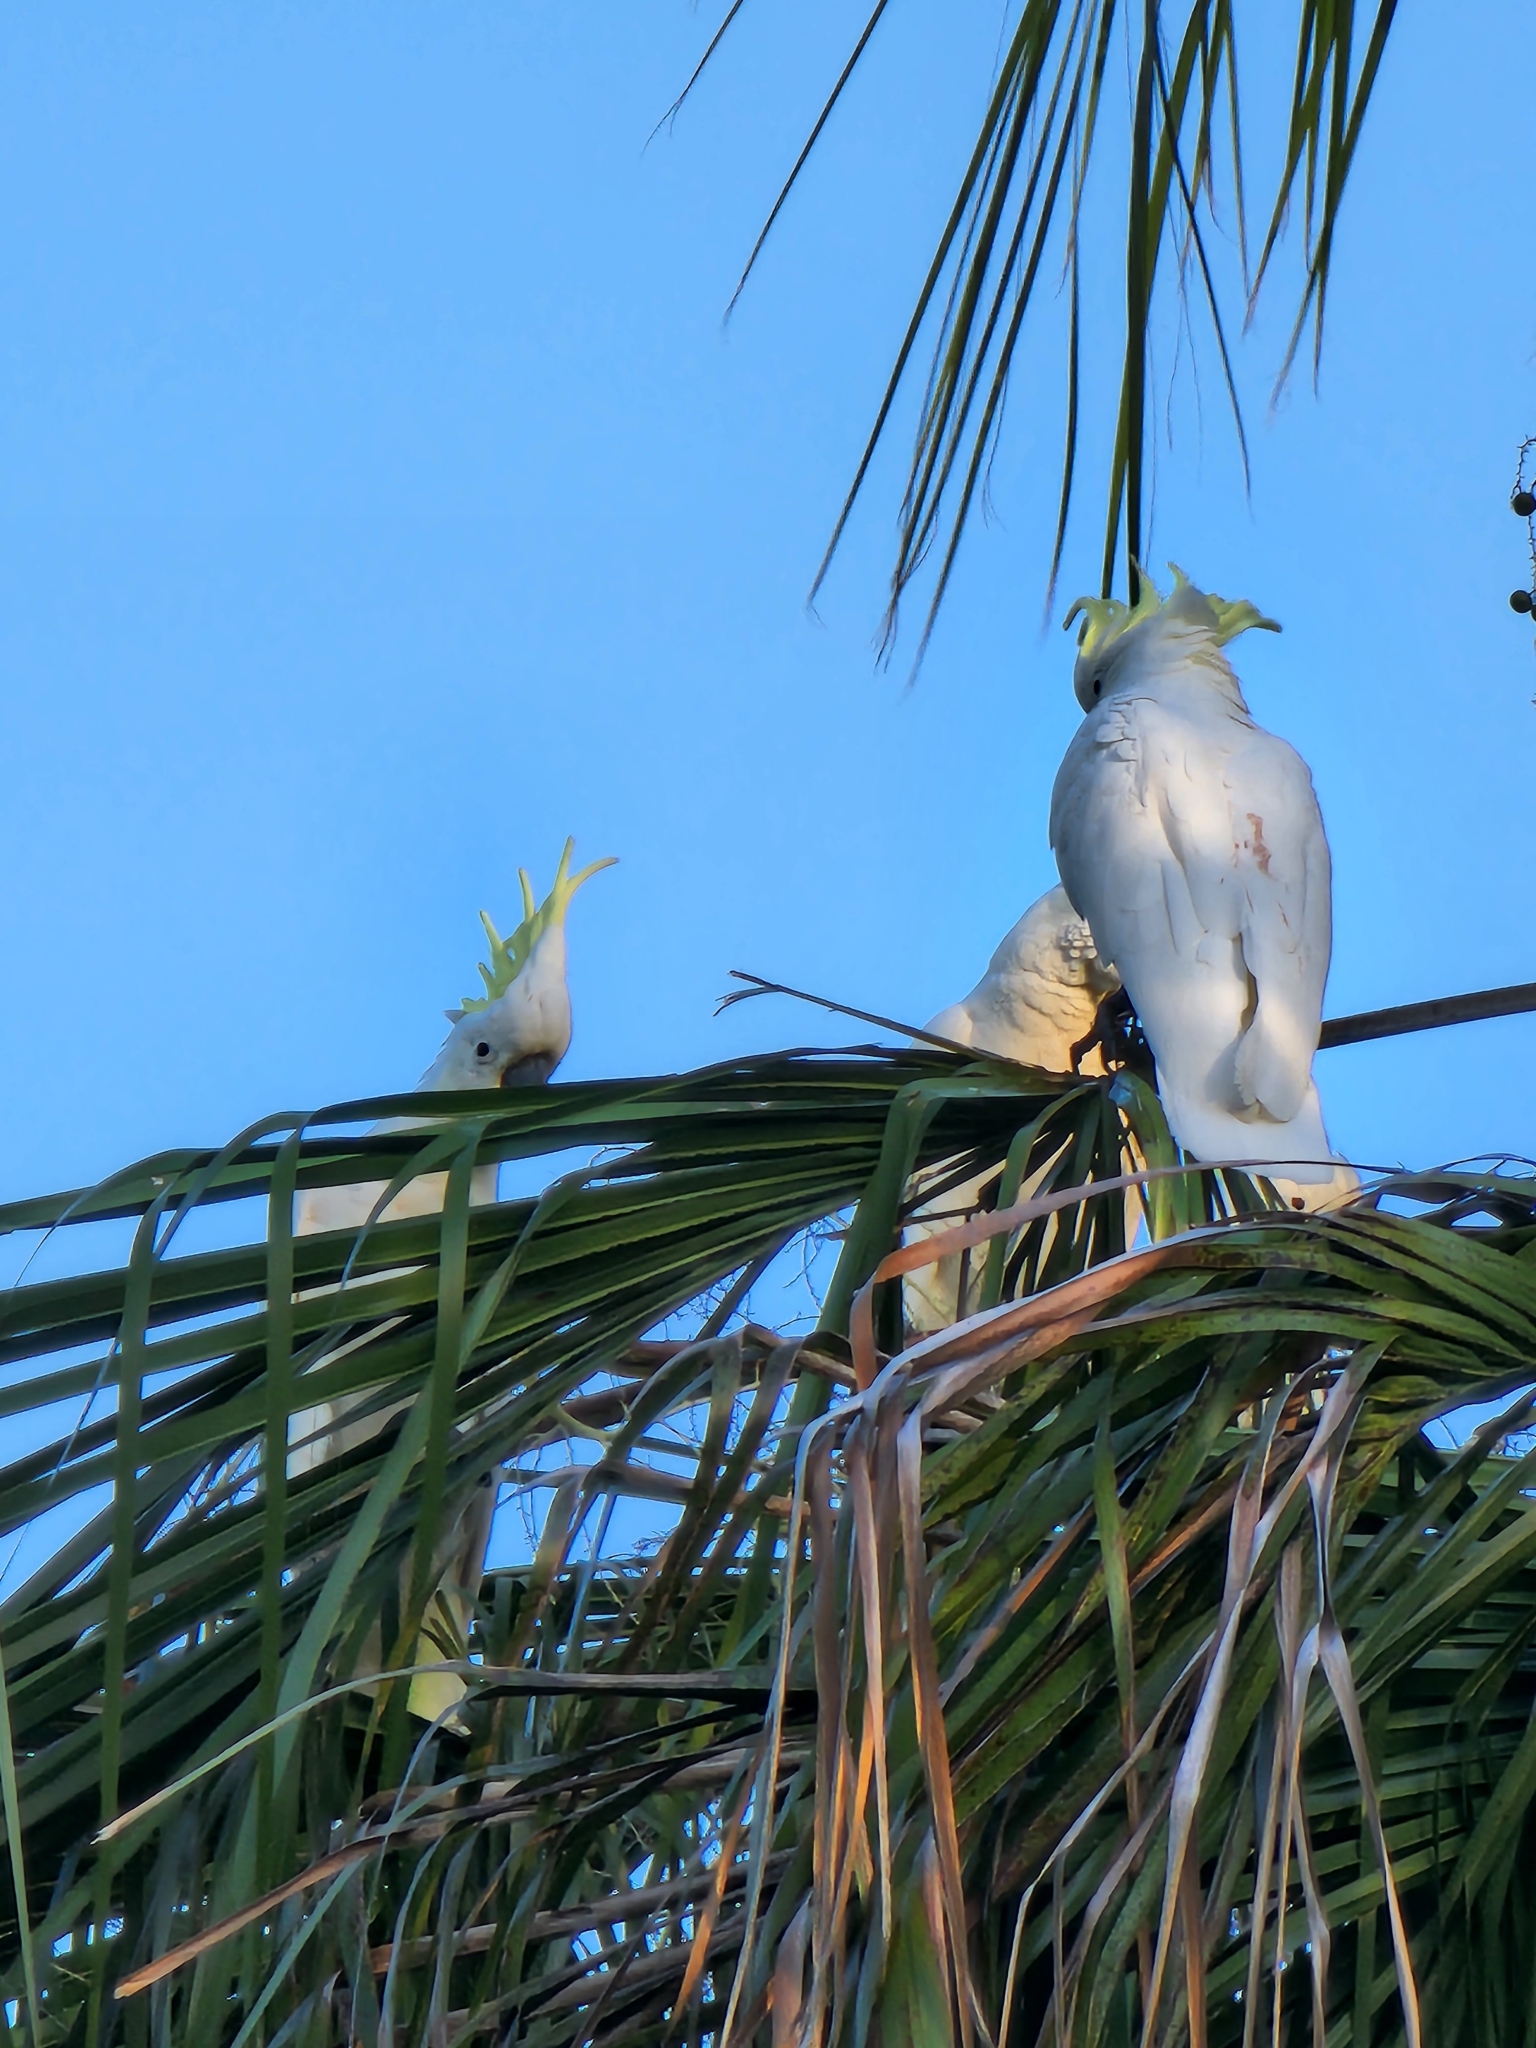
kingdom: Animalia
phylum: Chordata
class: Aves
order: Psittaciformes
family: Psittacidae
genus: Cacatua
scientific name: Cacatua galerita
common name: Sulphur-crested cockatoo
